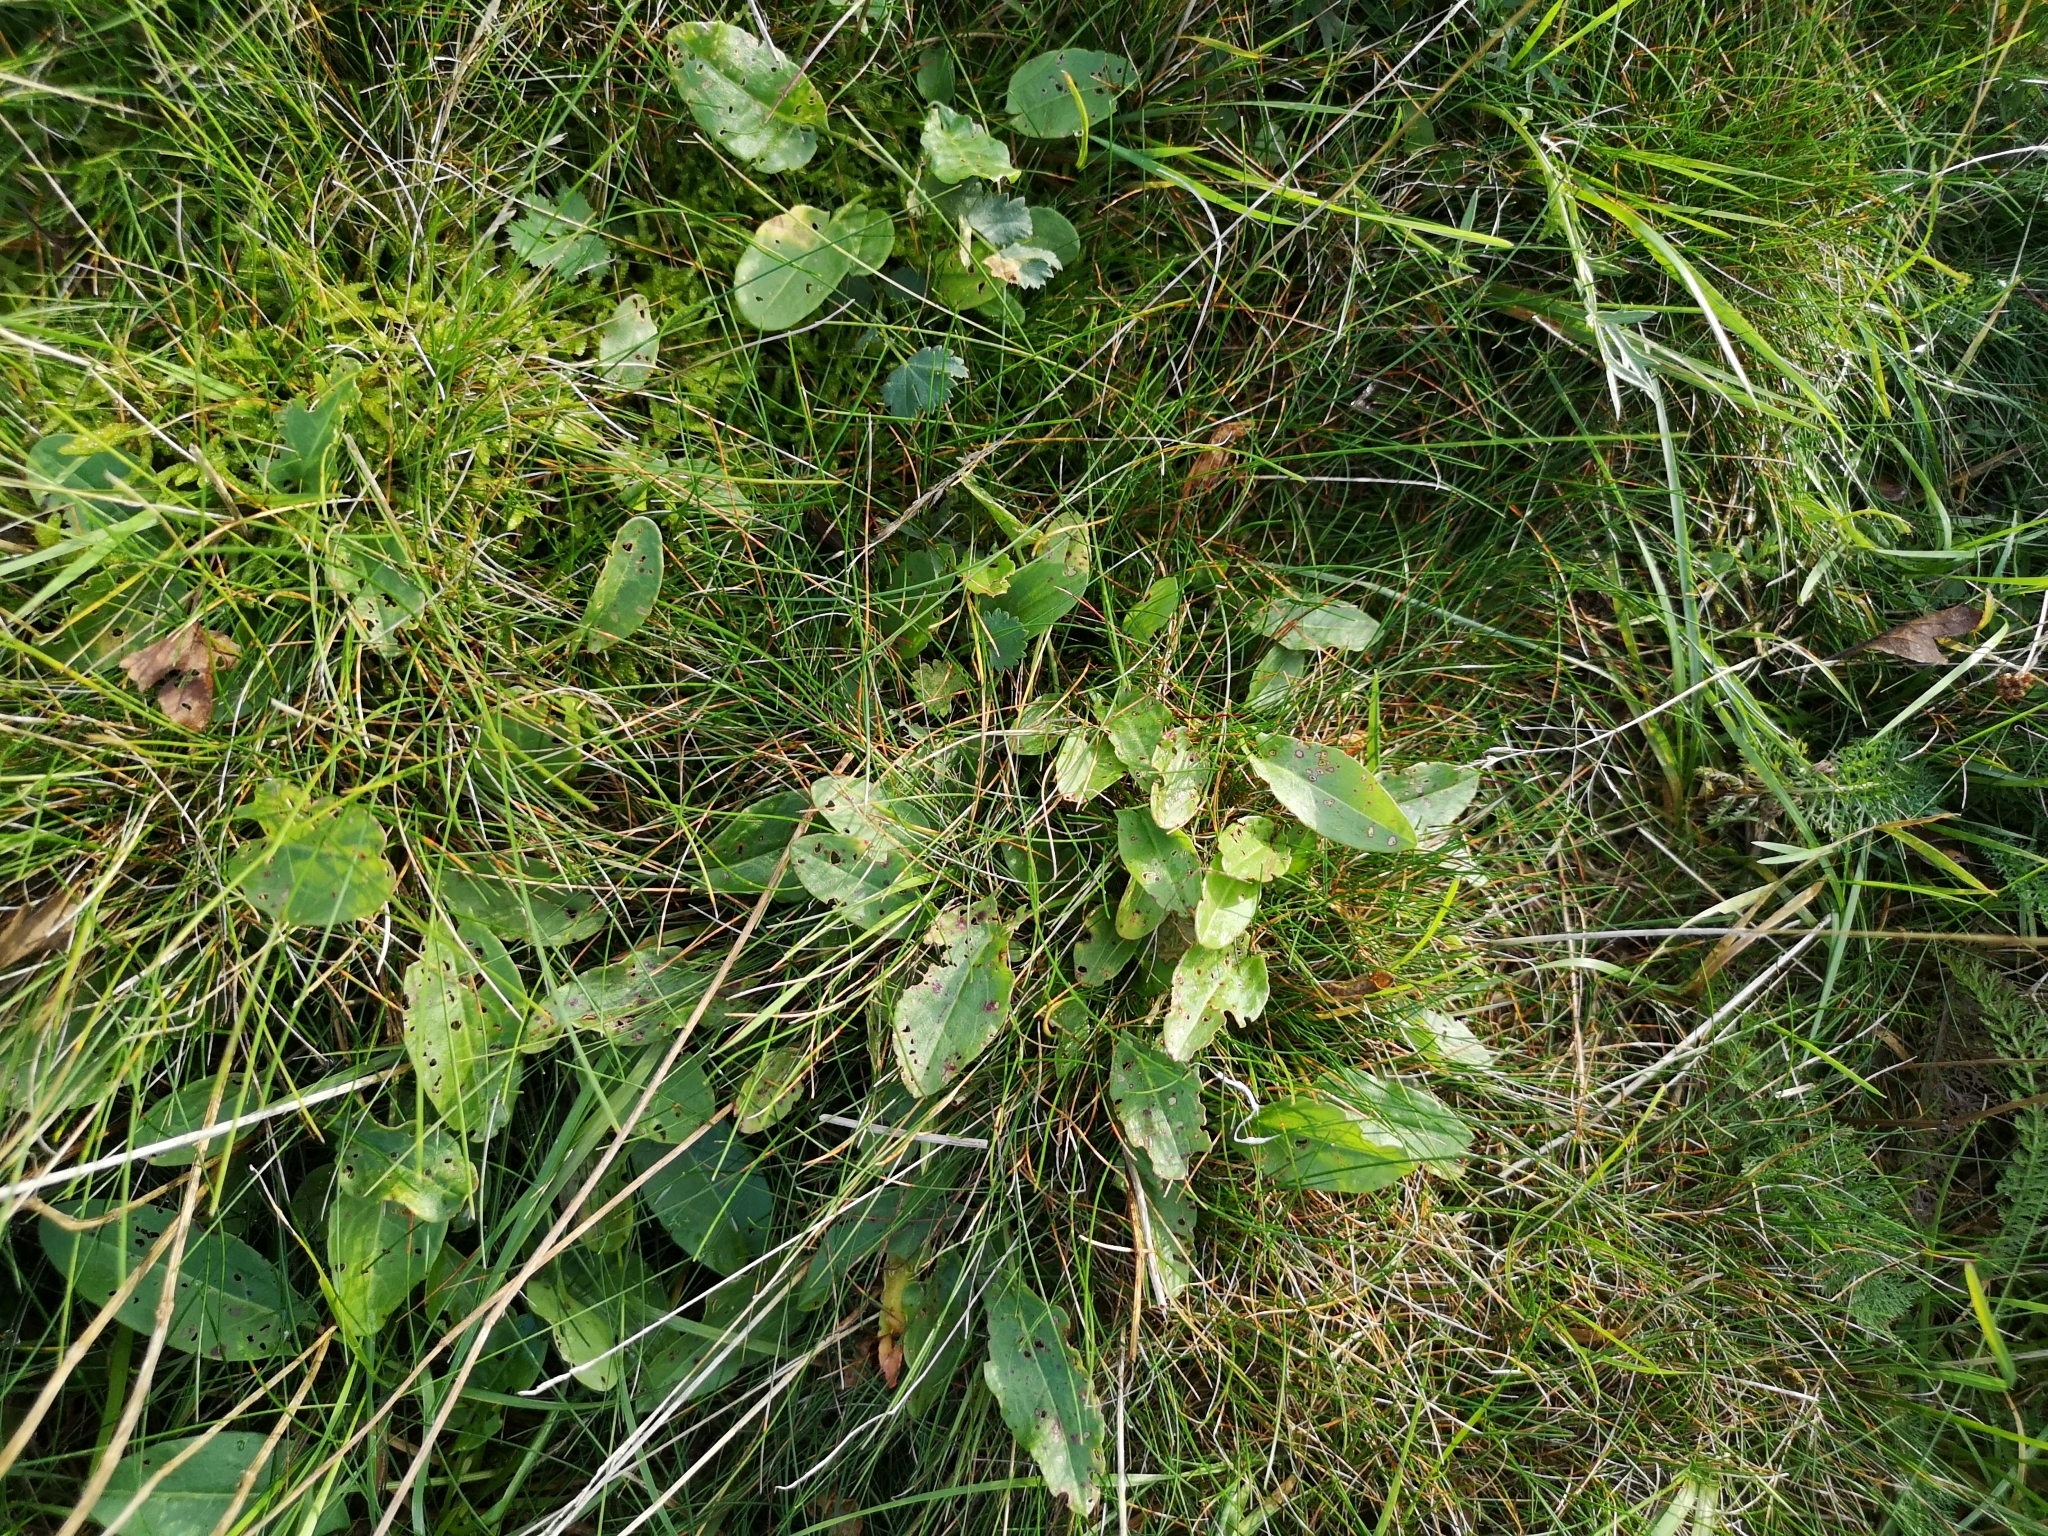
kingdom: Plantae
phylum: Tracheophyta
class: Magnoliopsida
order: Caryophyllales
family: Polygonaceae
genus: Rumex
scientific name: Rumex acetosa
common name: Garden sorrel
